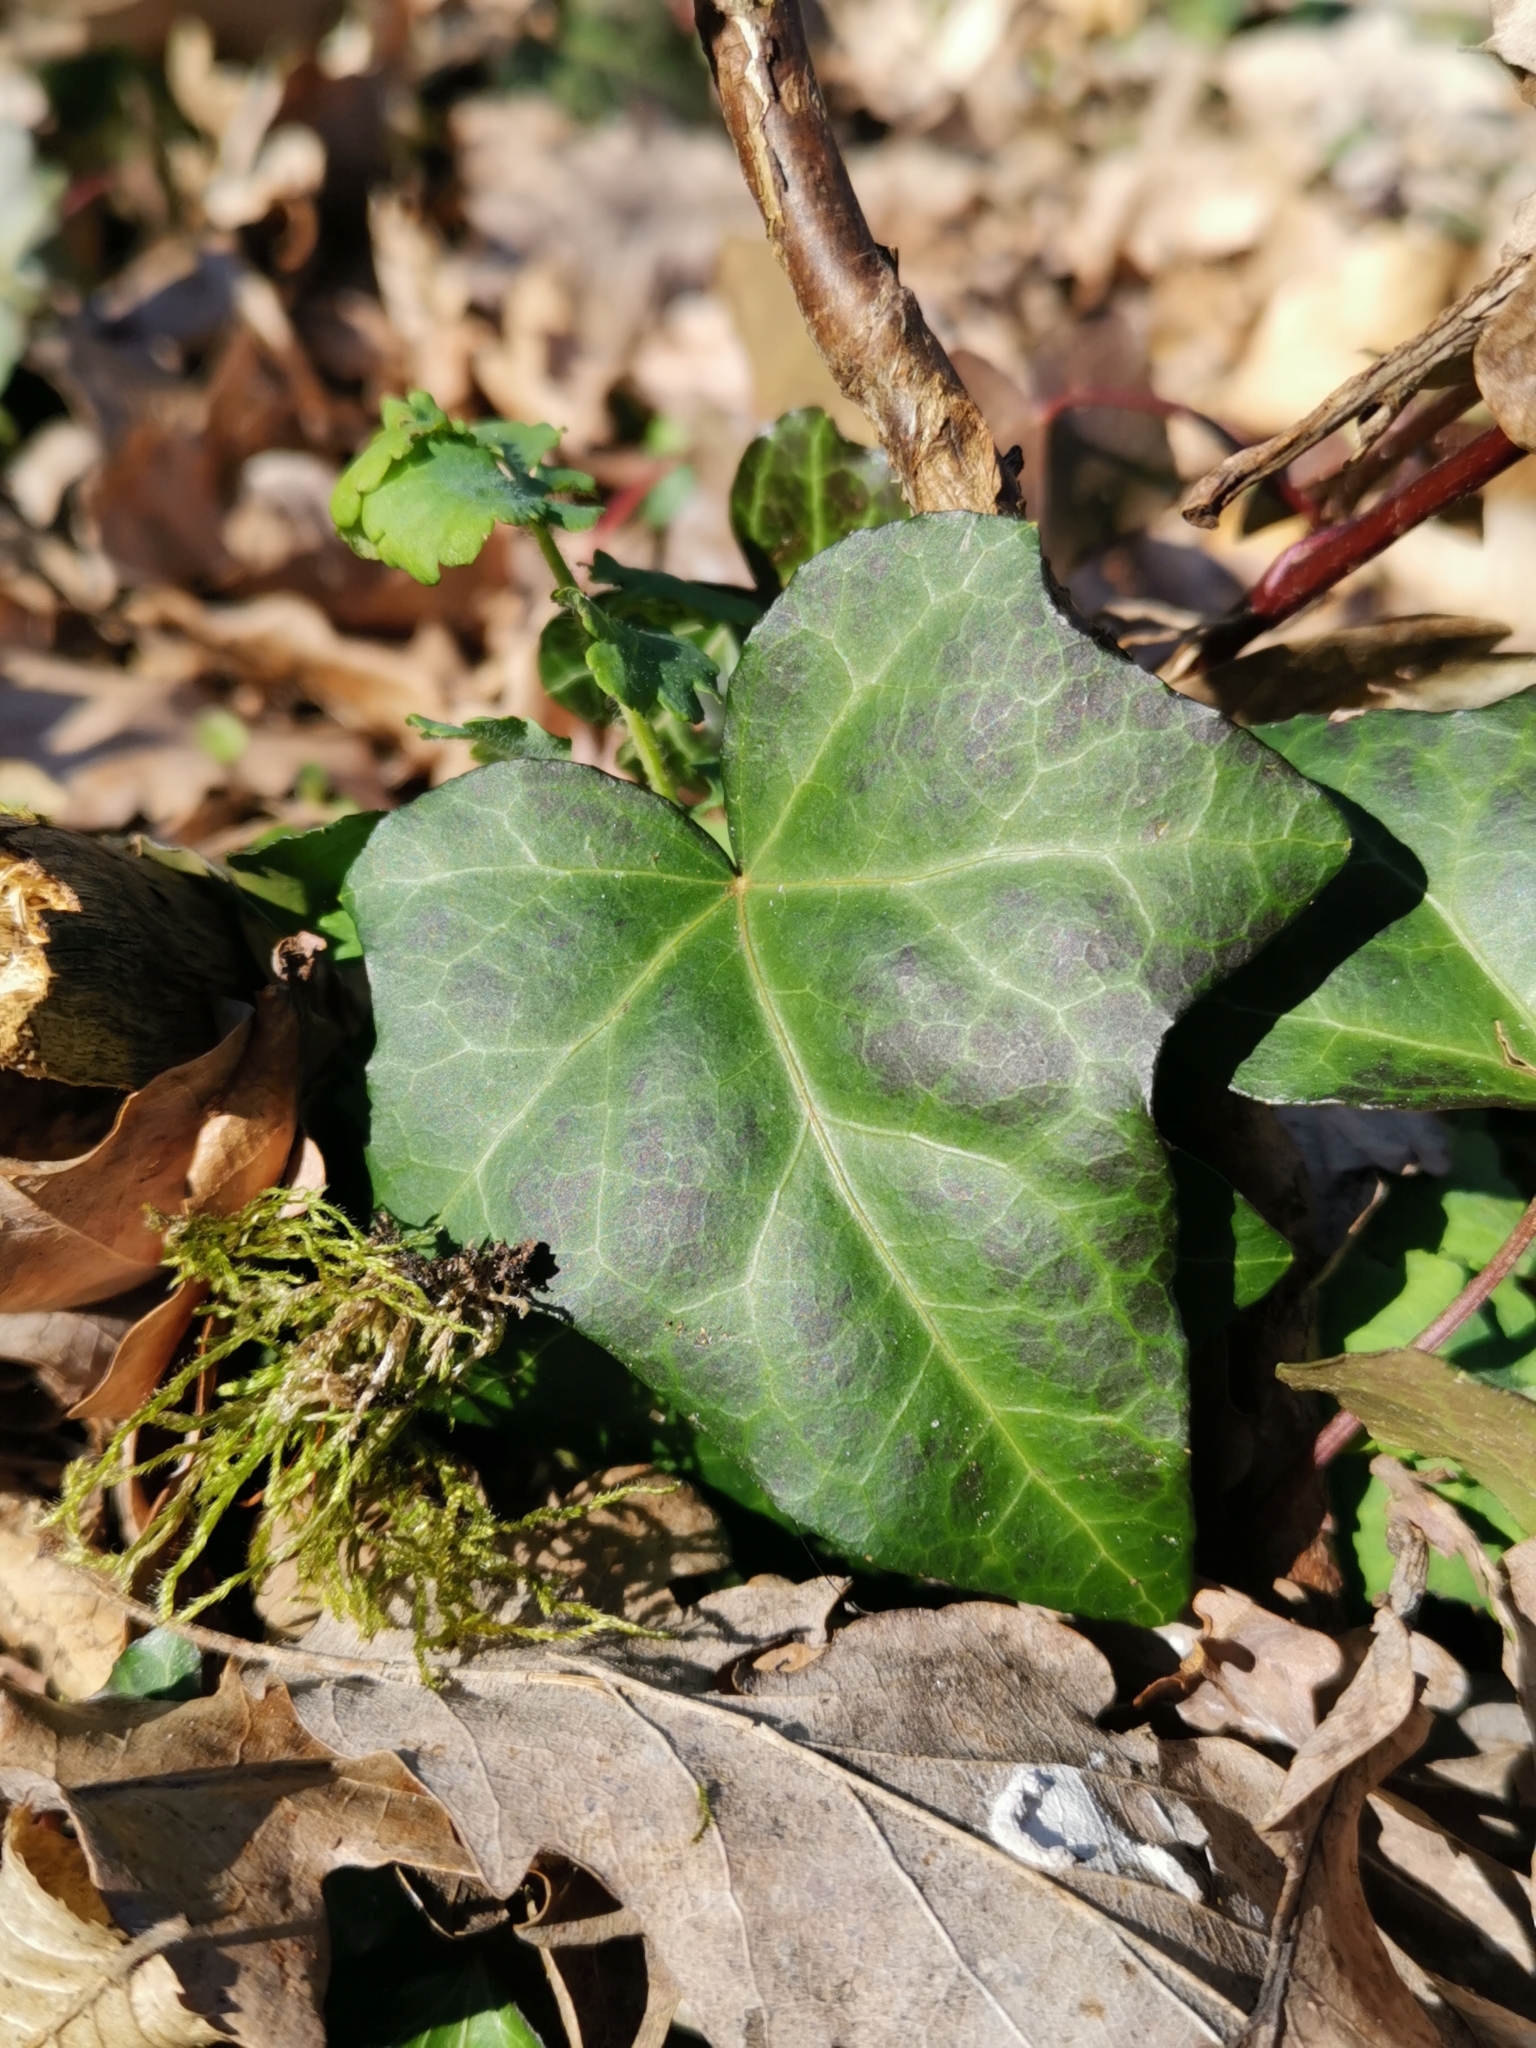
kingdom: Plantae
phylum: Tracheophyta
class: Magnoliopsida
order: Apiales
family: Araliaceae
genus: Hedera
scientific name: Hedera helix
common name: Ivy
